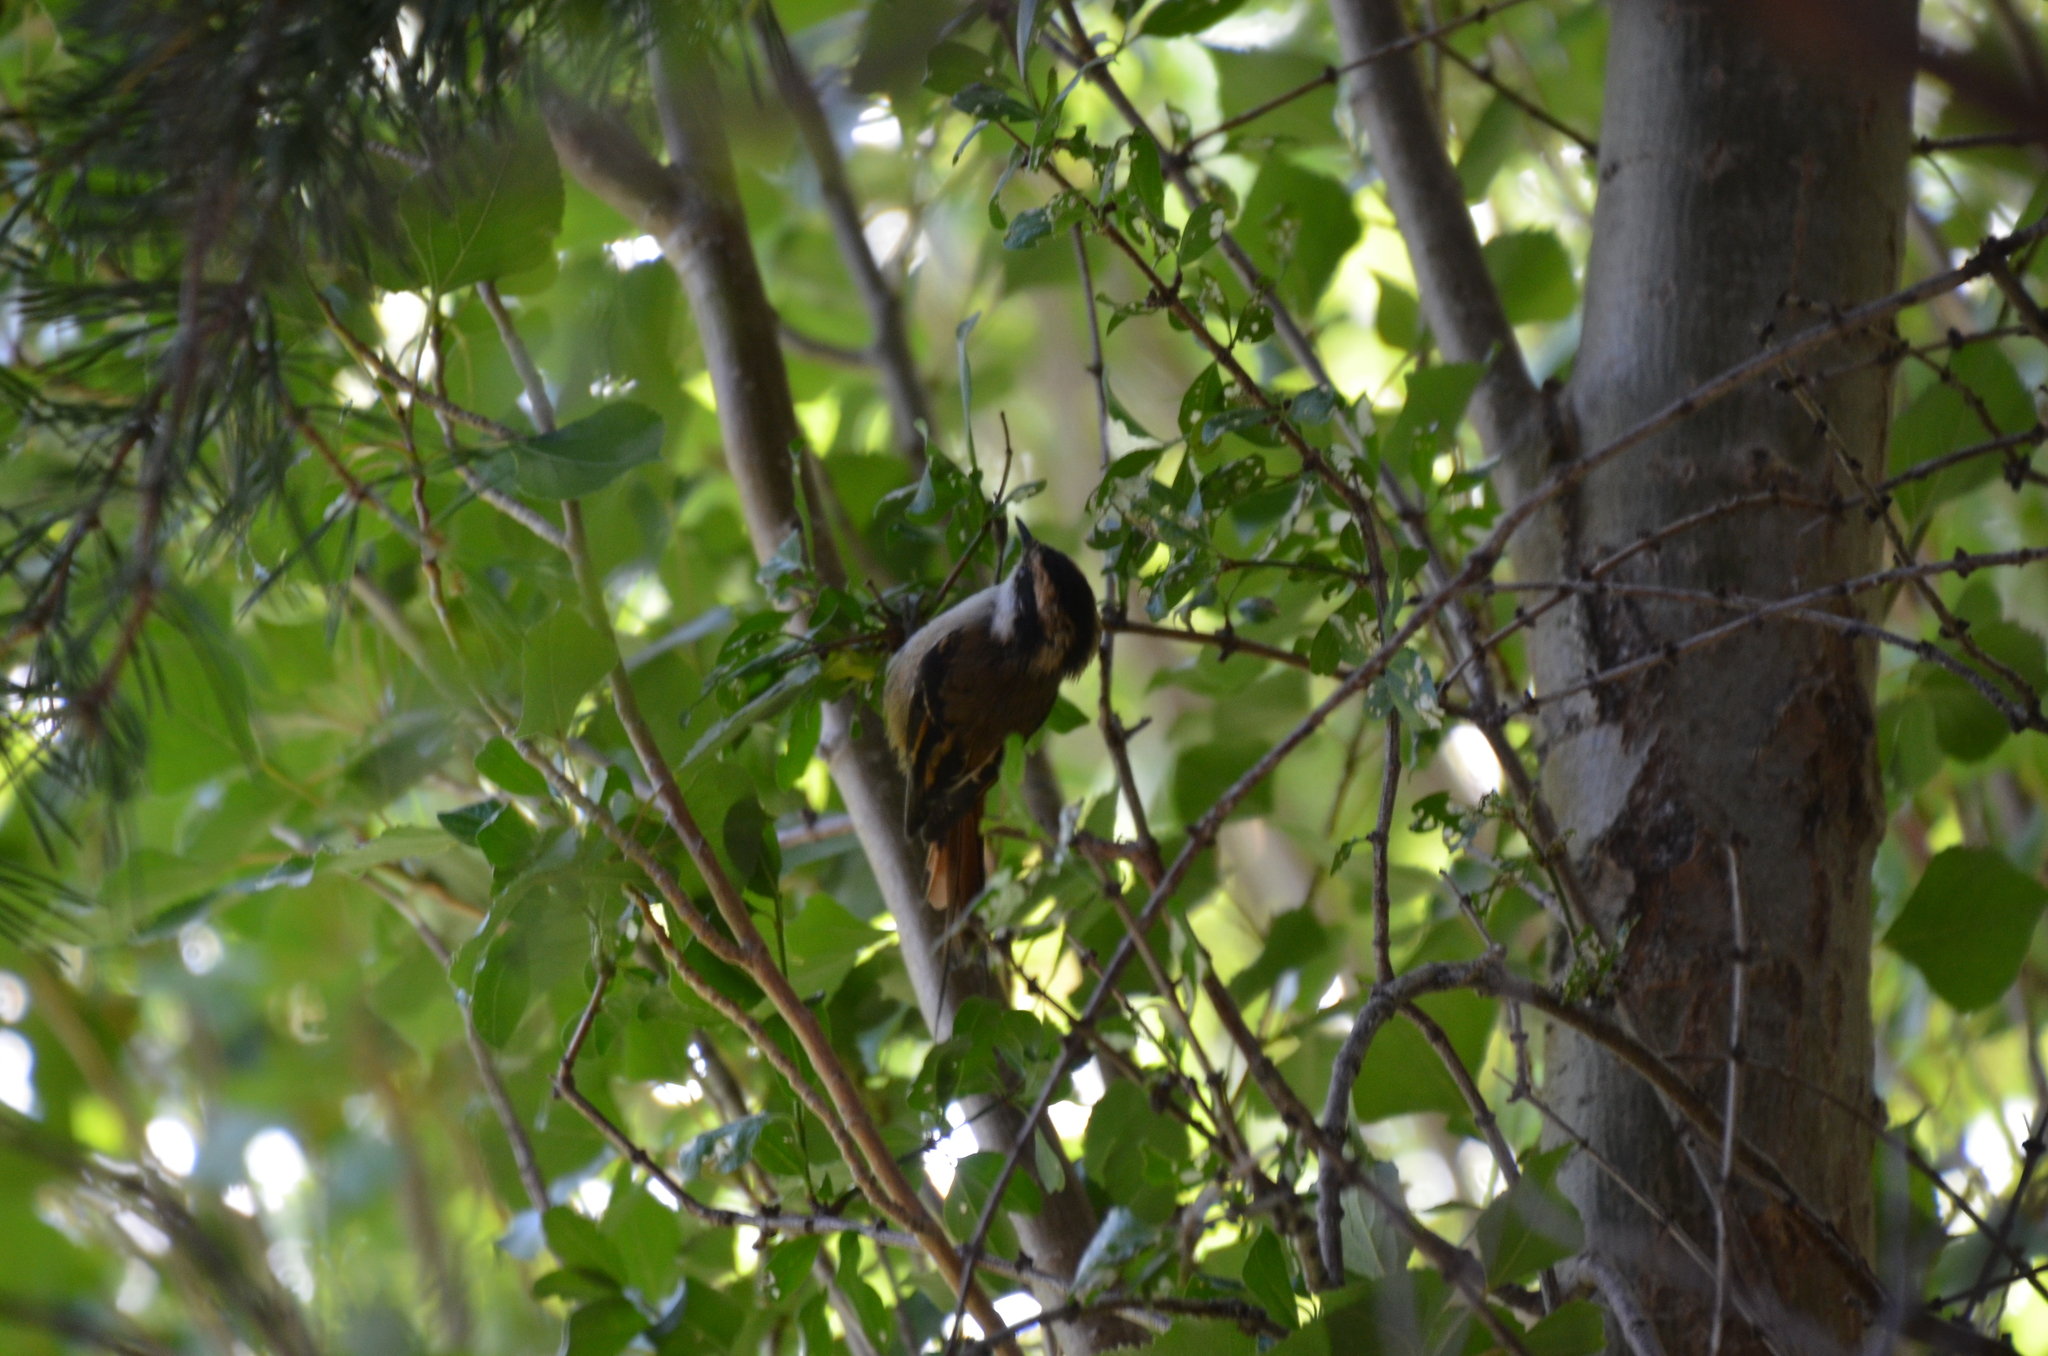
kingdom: Animalia
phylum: Chordata
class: Aves
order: Passeriformes
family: Furnariidae
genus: Aphrastura
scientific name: Aphrastura spinicauda
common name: Thorn-tailed rayadito
